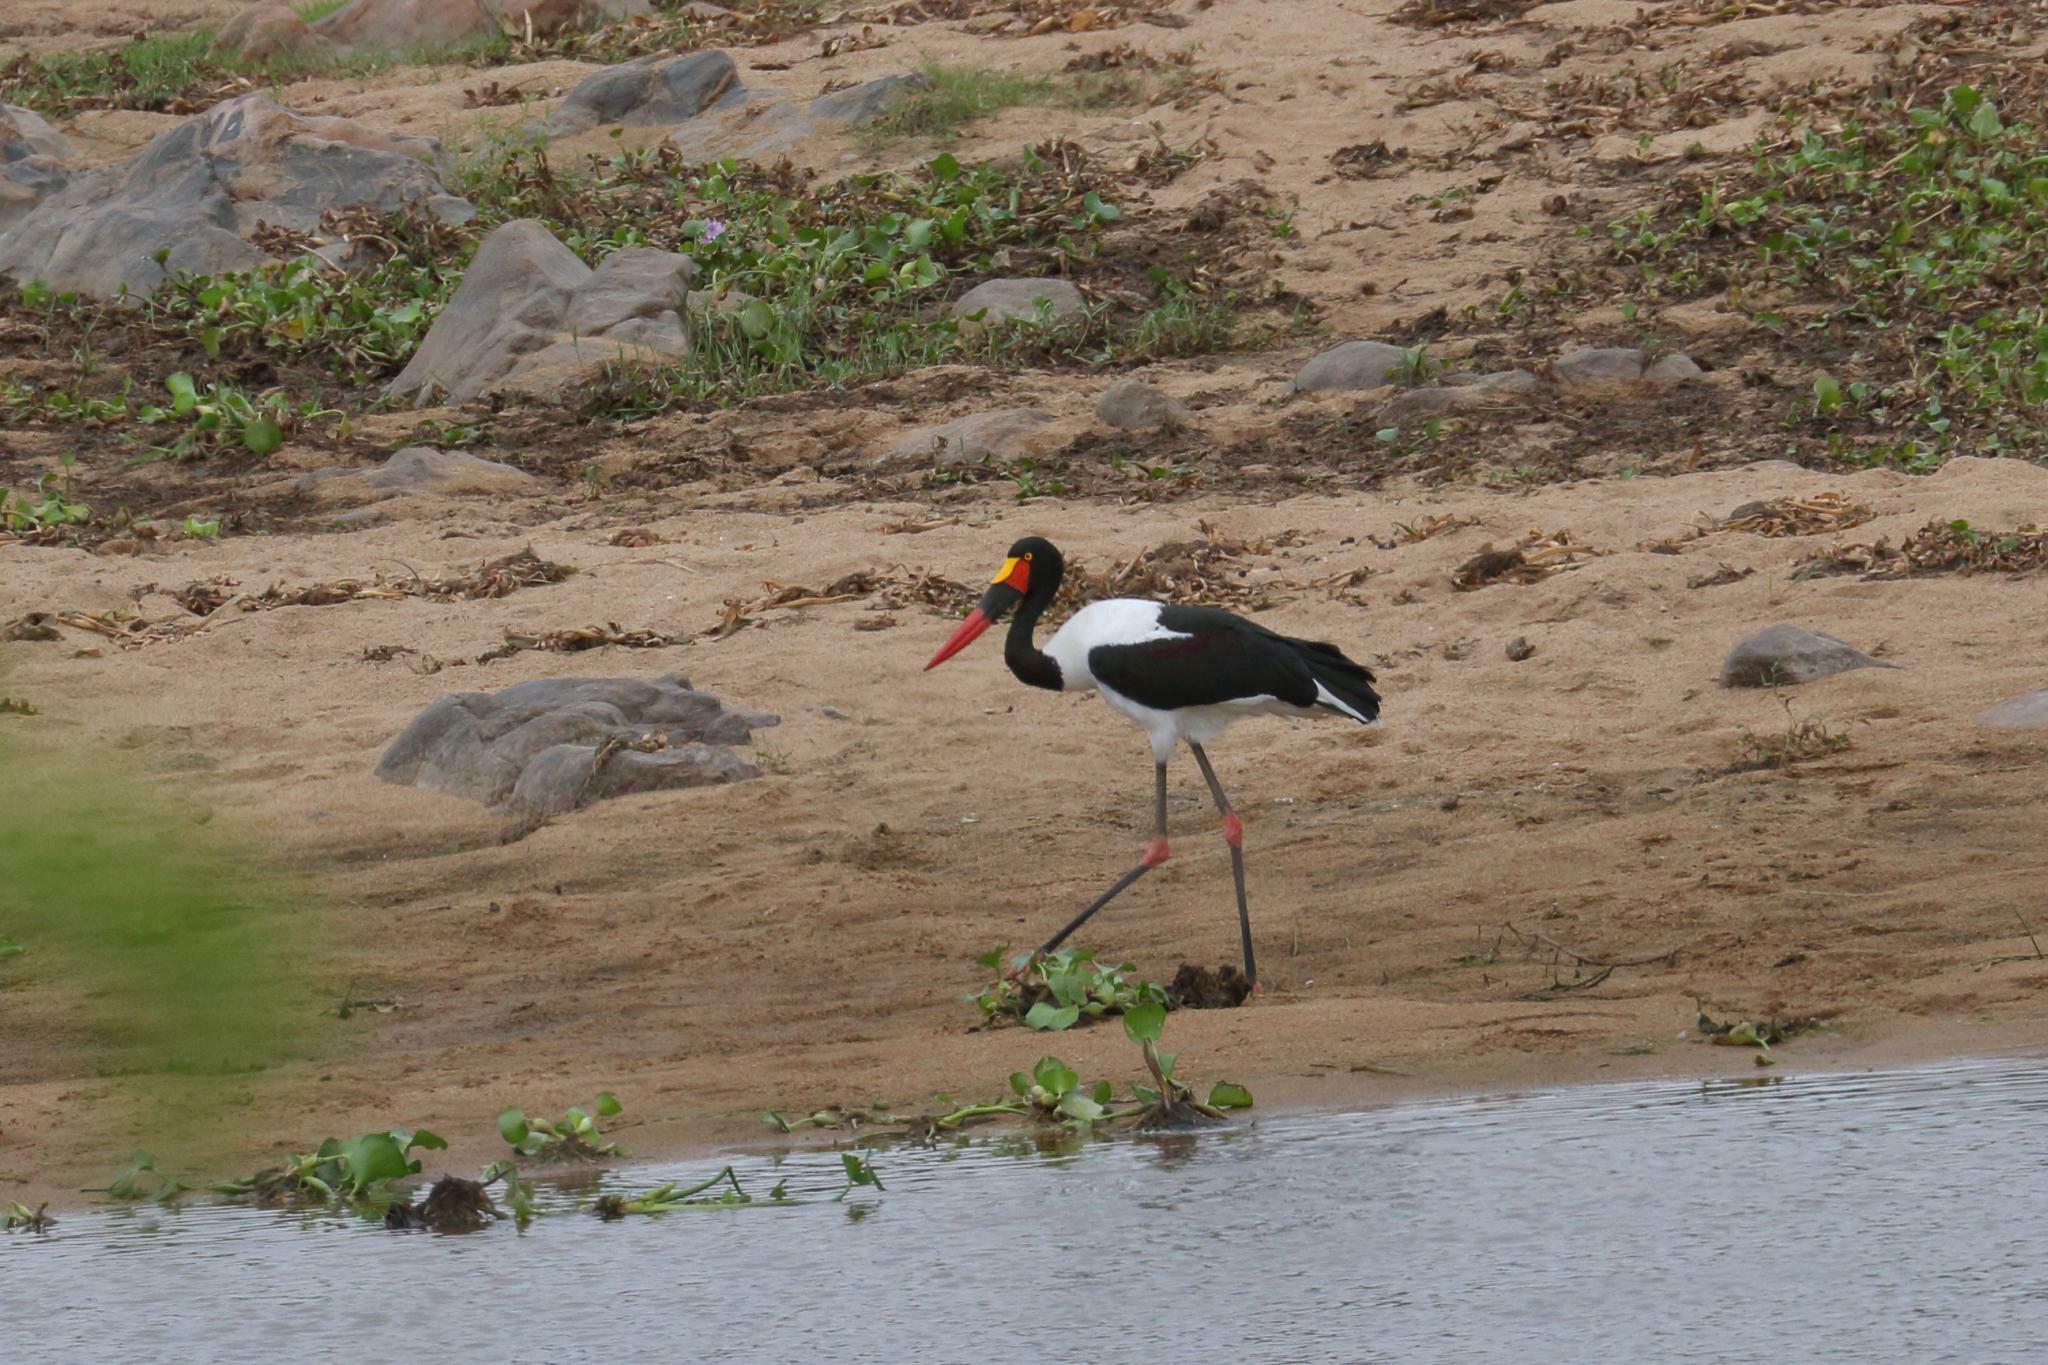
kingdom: Animalia
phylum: Chordata
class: Aves
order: Ciconiiformes
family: Ciconiidae
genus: Ephippiorhynchus
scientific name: Ephippiorhynchus senegalensis
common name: Saddle-billed stork
